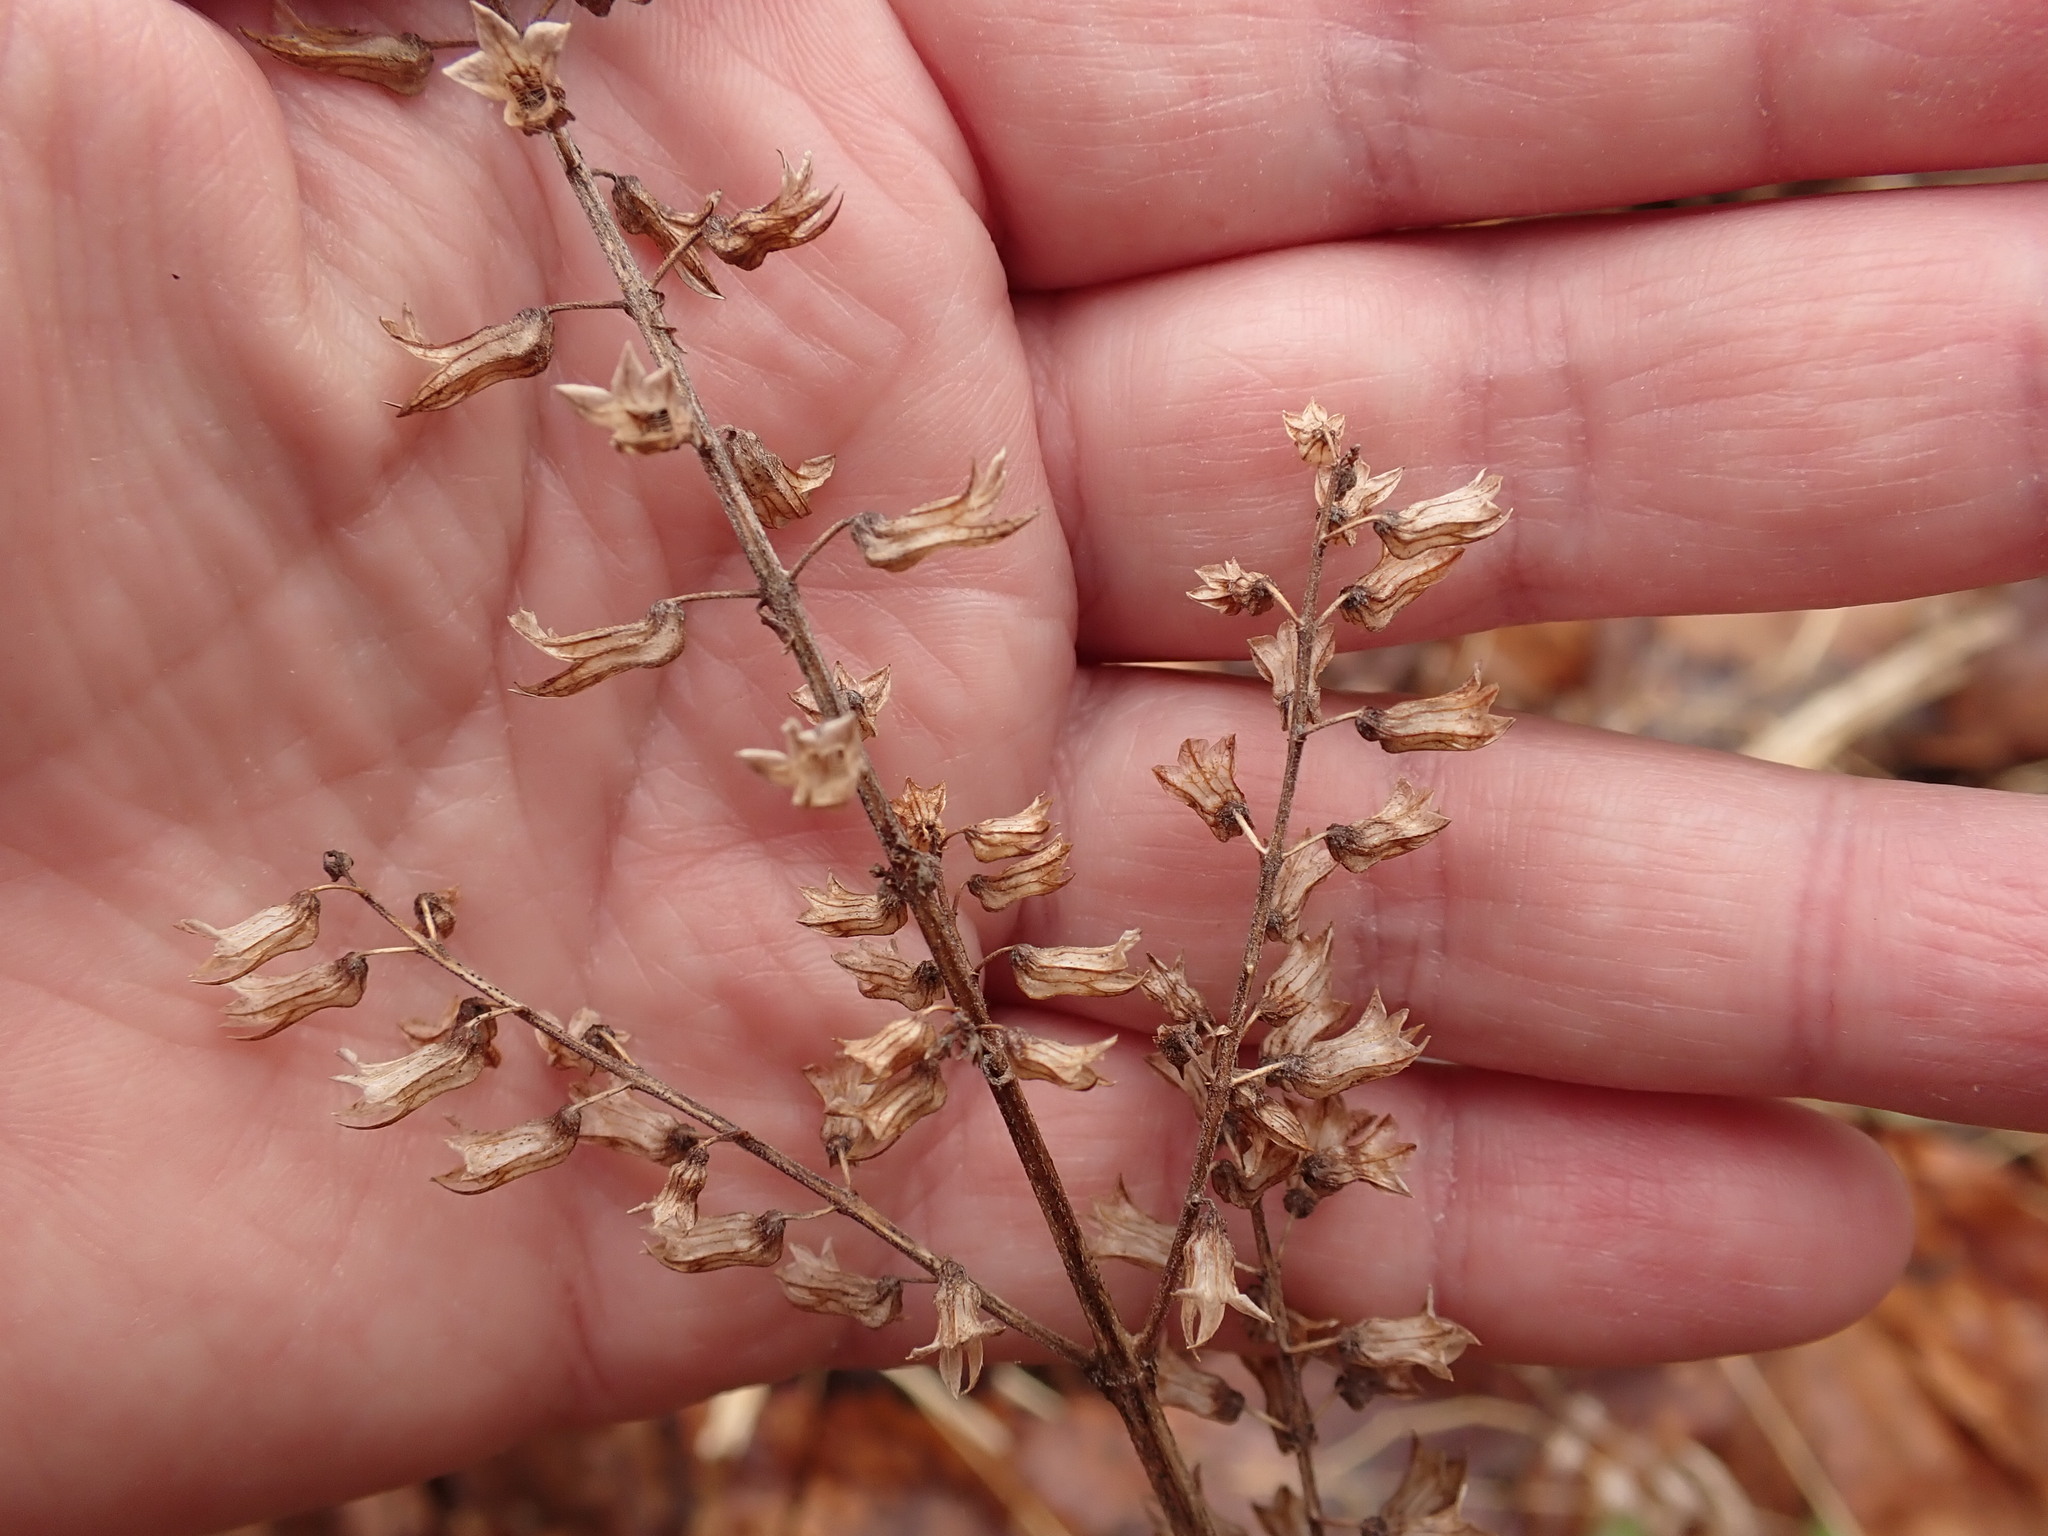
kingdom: Plantae
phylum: Tracheophyta
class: Magnoliopsida
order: Lamiales
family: Lamiaceae
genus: Perilla
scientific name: Perilla frutescens
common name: Perilla
